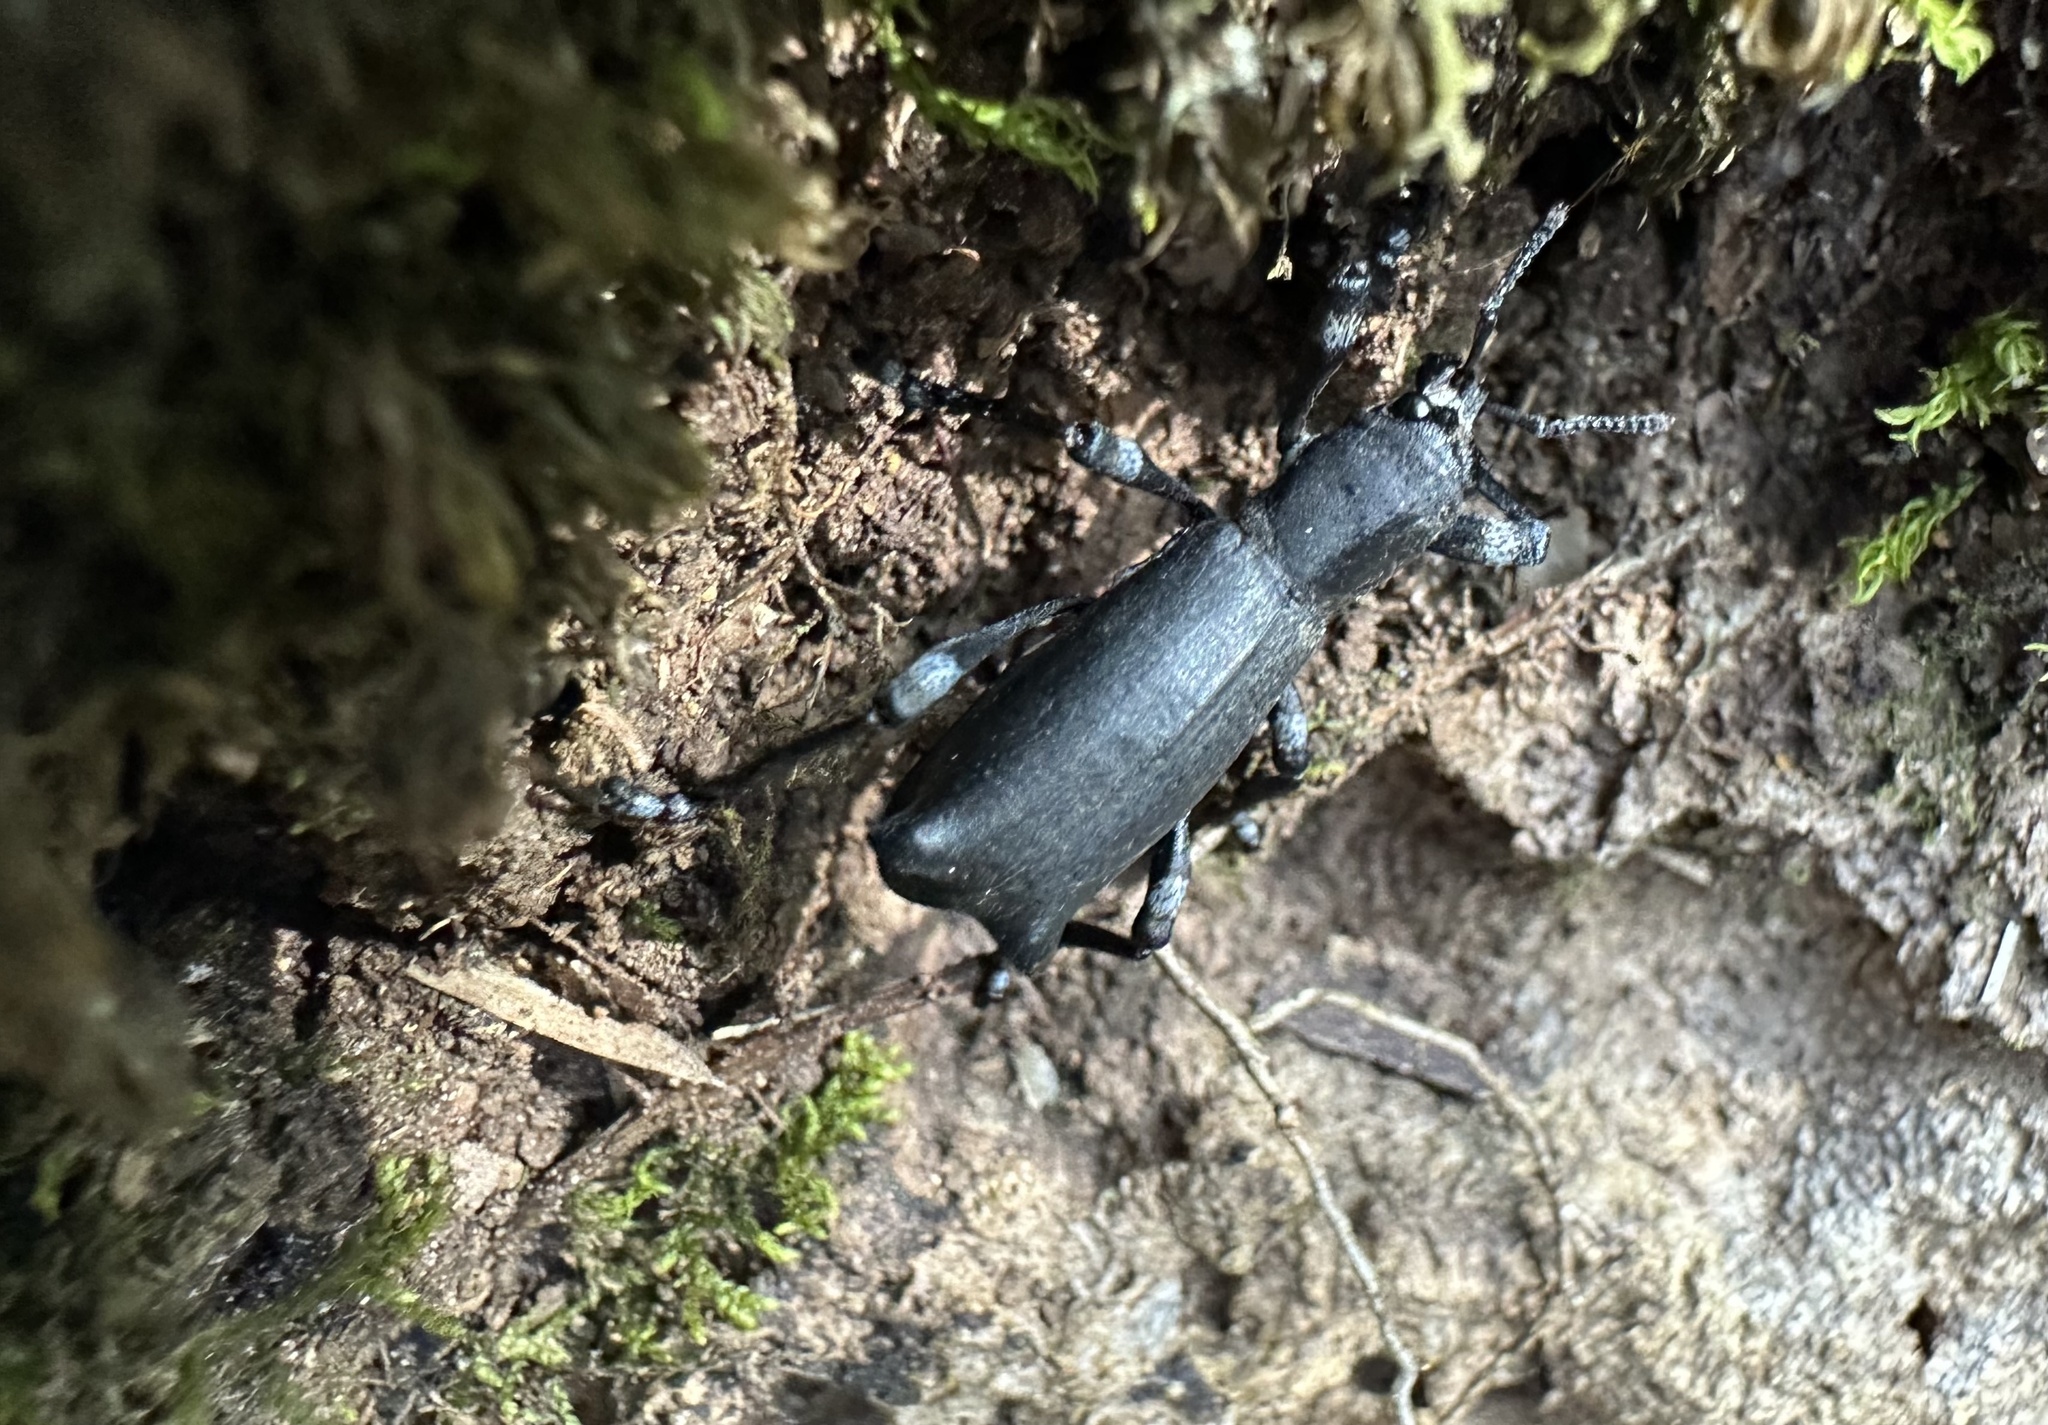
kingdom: Animalia
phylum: Arthropoda
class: Insecta
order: Coleoptera
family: Curculionidae
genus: Aegorhinus
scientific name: Aegorhinus
